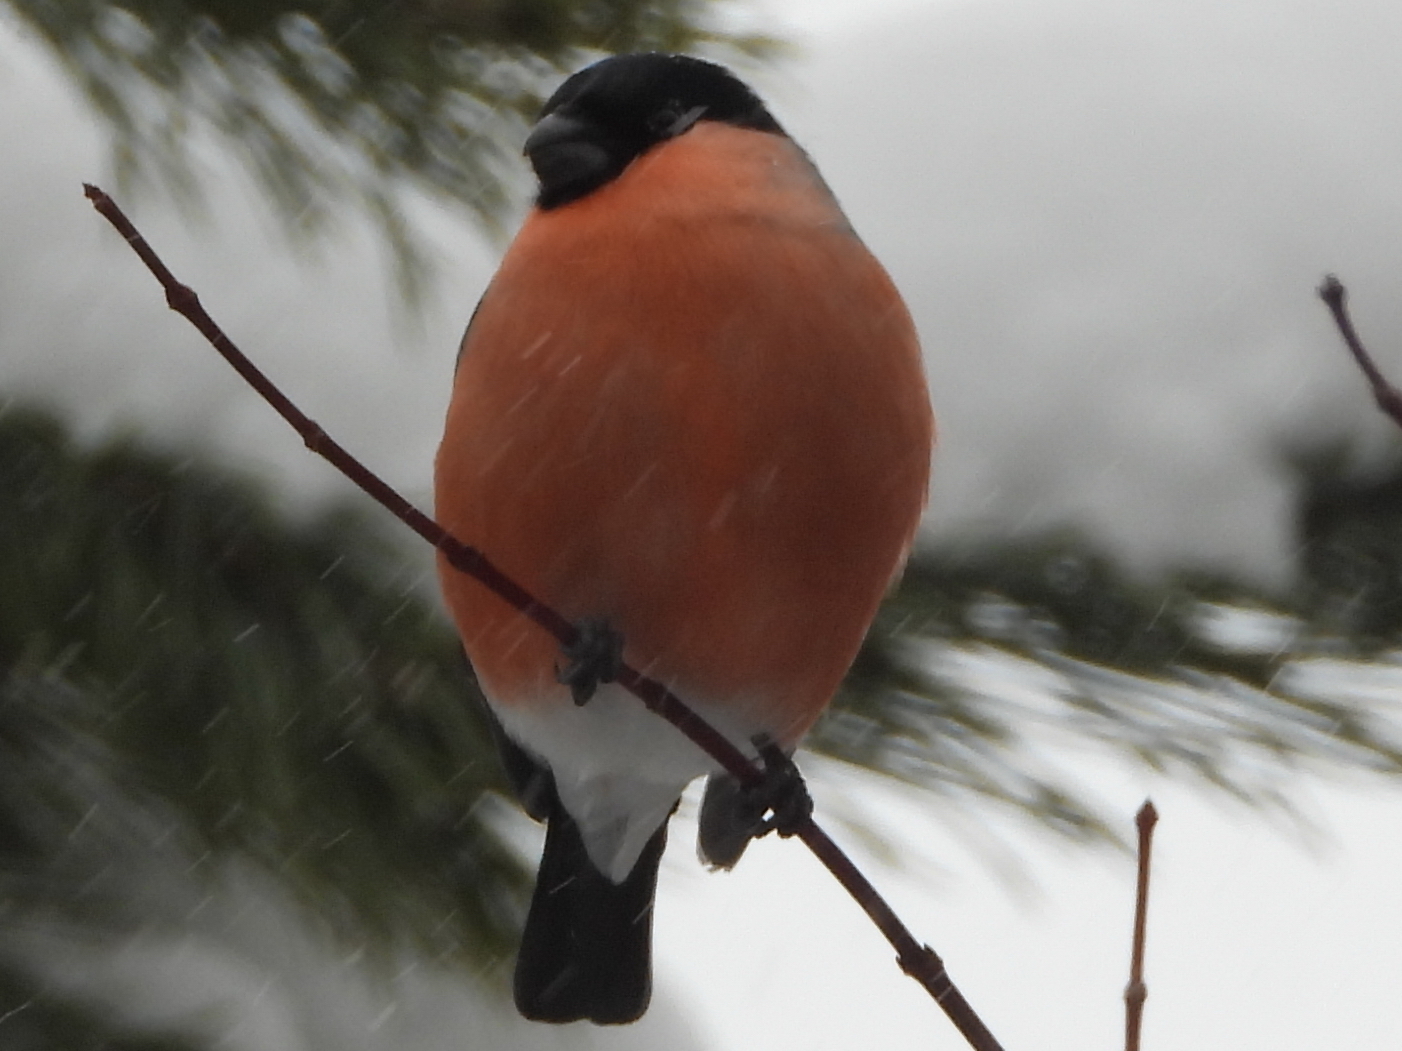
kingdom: Animalia
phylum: Chordata
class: Aves
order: Passeriformes
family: Fringillidae
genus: Pyrrhula
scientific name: Pyrrhula pyrrhula
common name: Eurasian bullfinch
